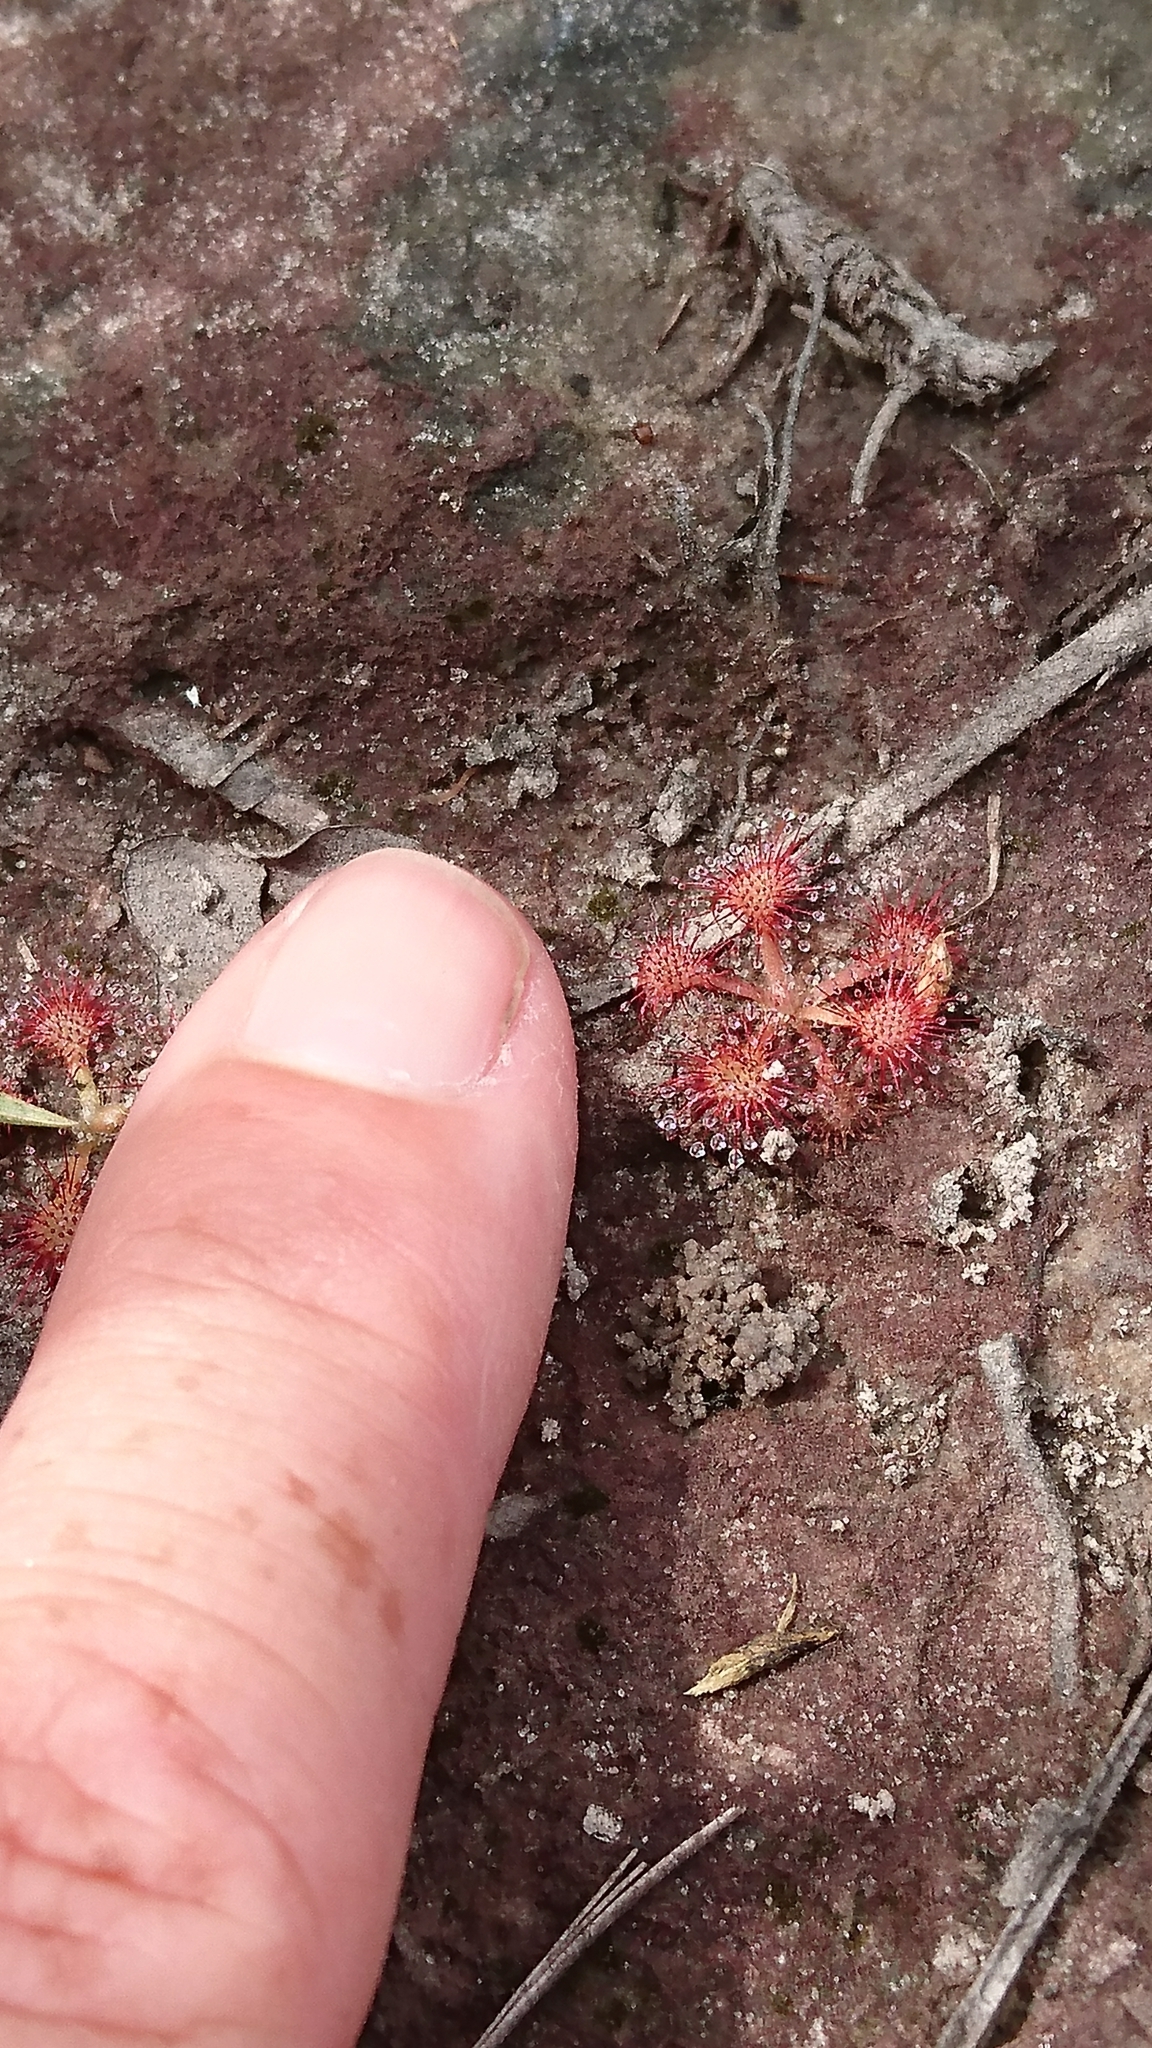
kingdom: Plantae
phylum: Tracheophyta
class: Magnoliopsida
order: Caryophyllales
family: Droseraceae
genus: Drosera
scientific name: Drosera capillaris
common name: Pink sundew
